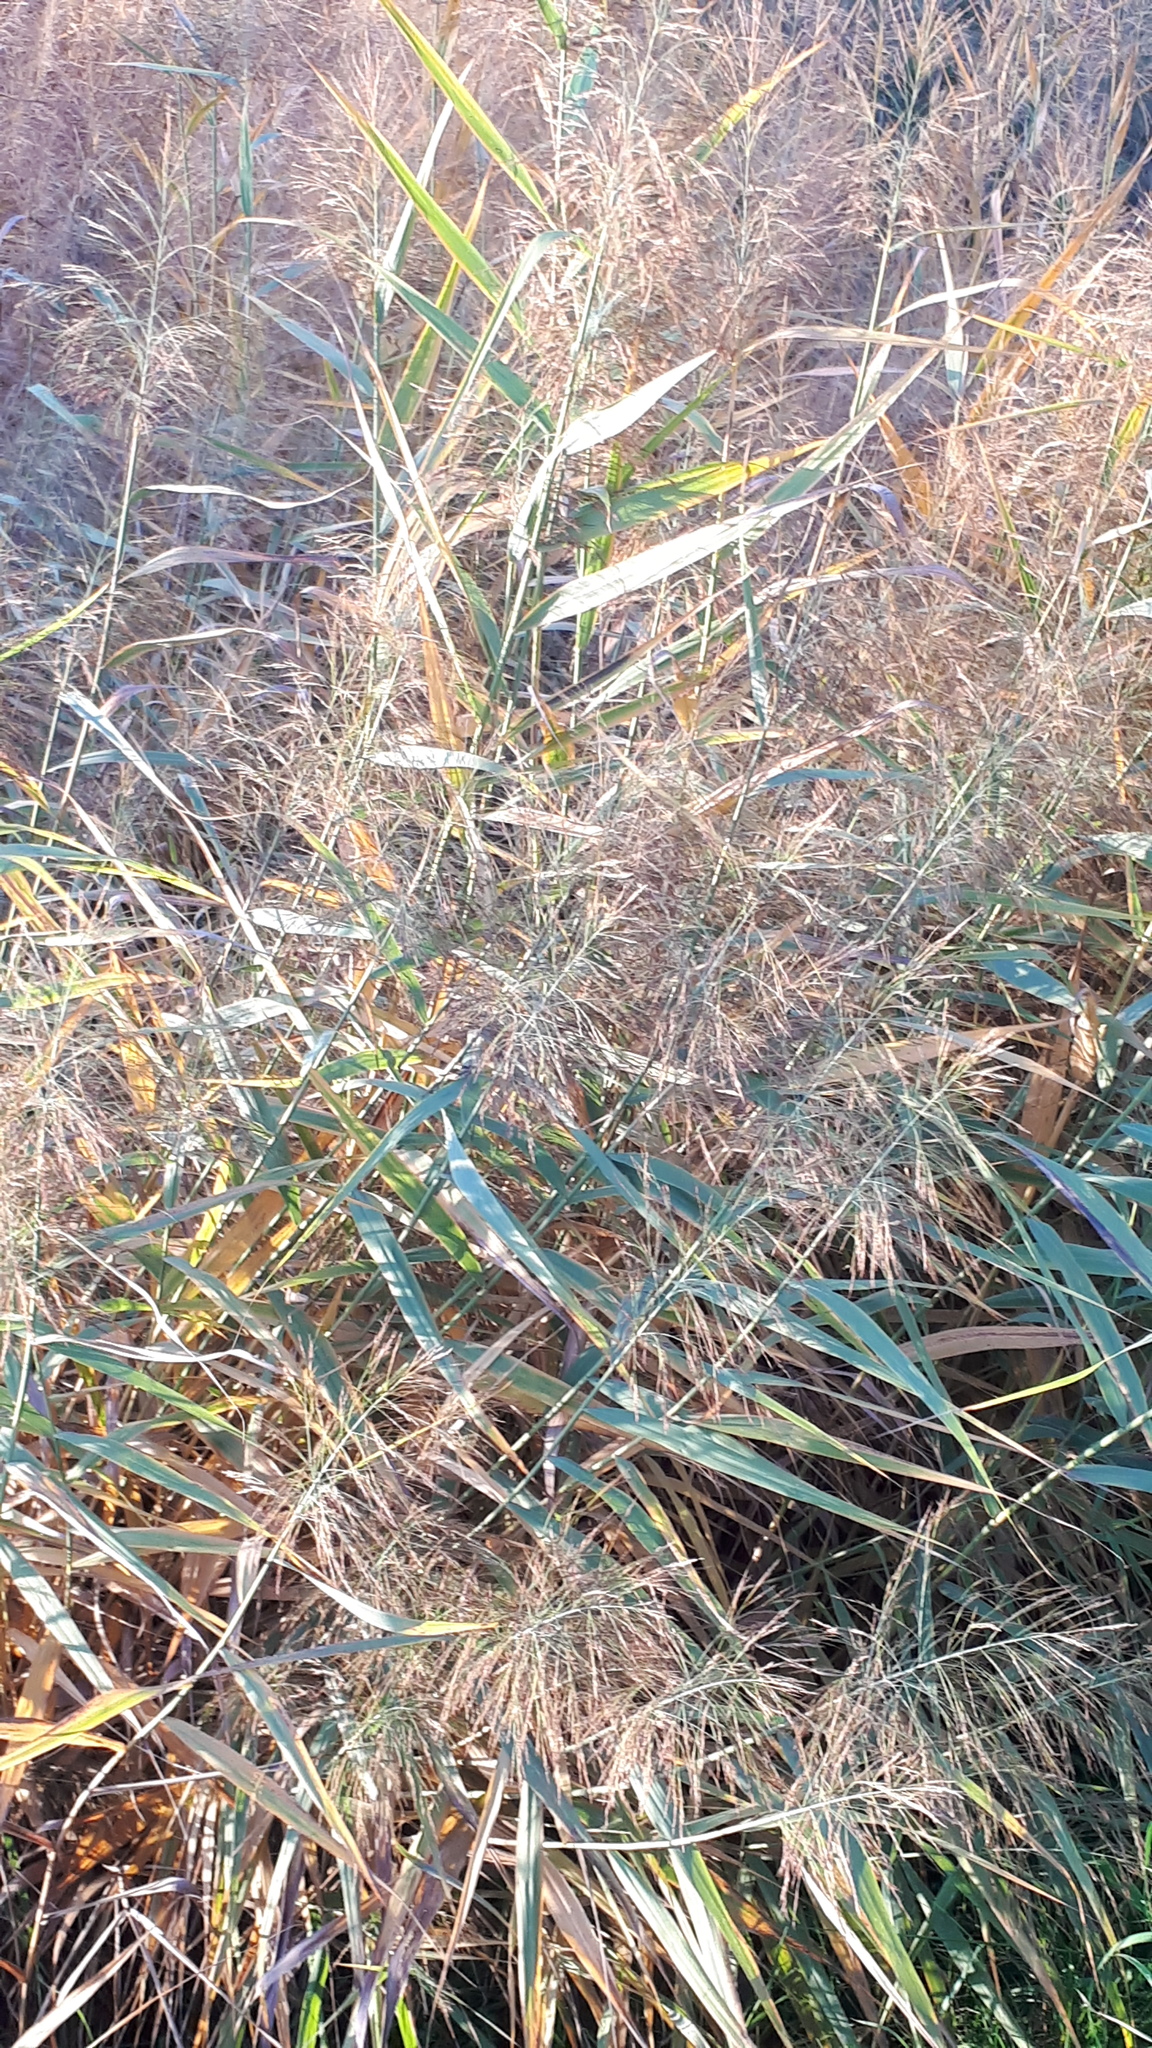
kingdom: Plantae
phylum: Tracheophyta
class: Liliopsida
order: Poales
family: Poaceae
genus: Phragmites
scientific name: Phragmites australis
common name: Common reed
